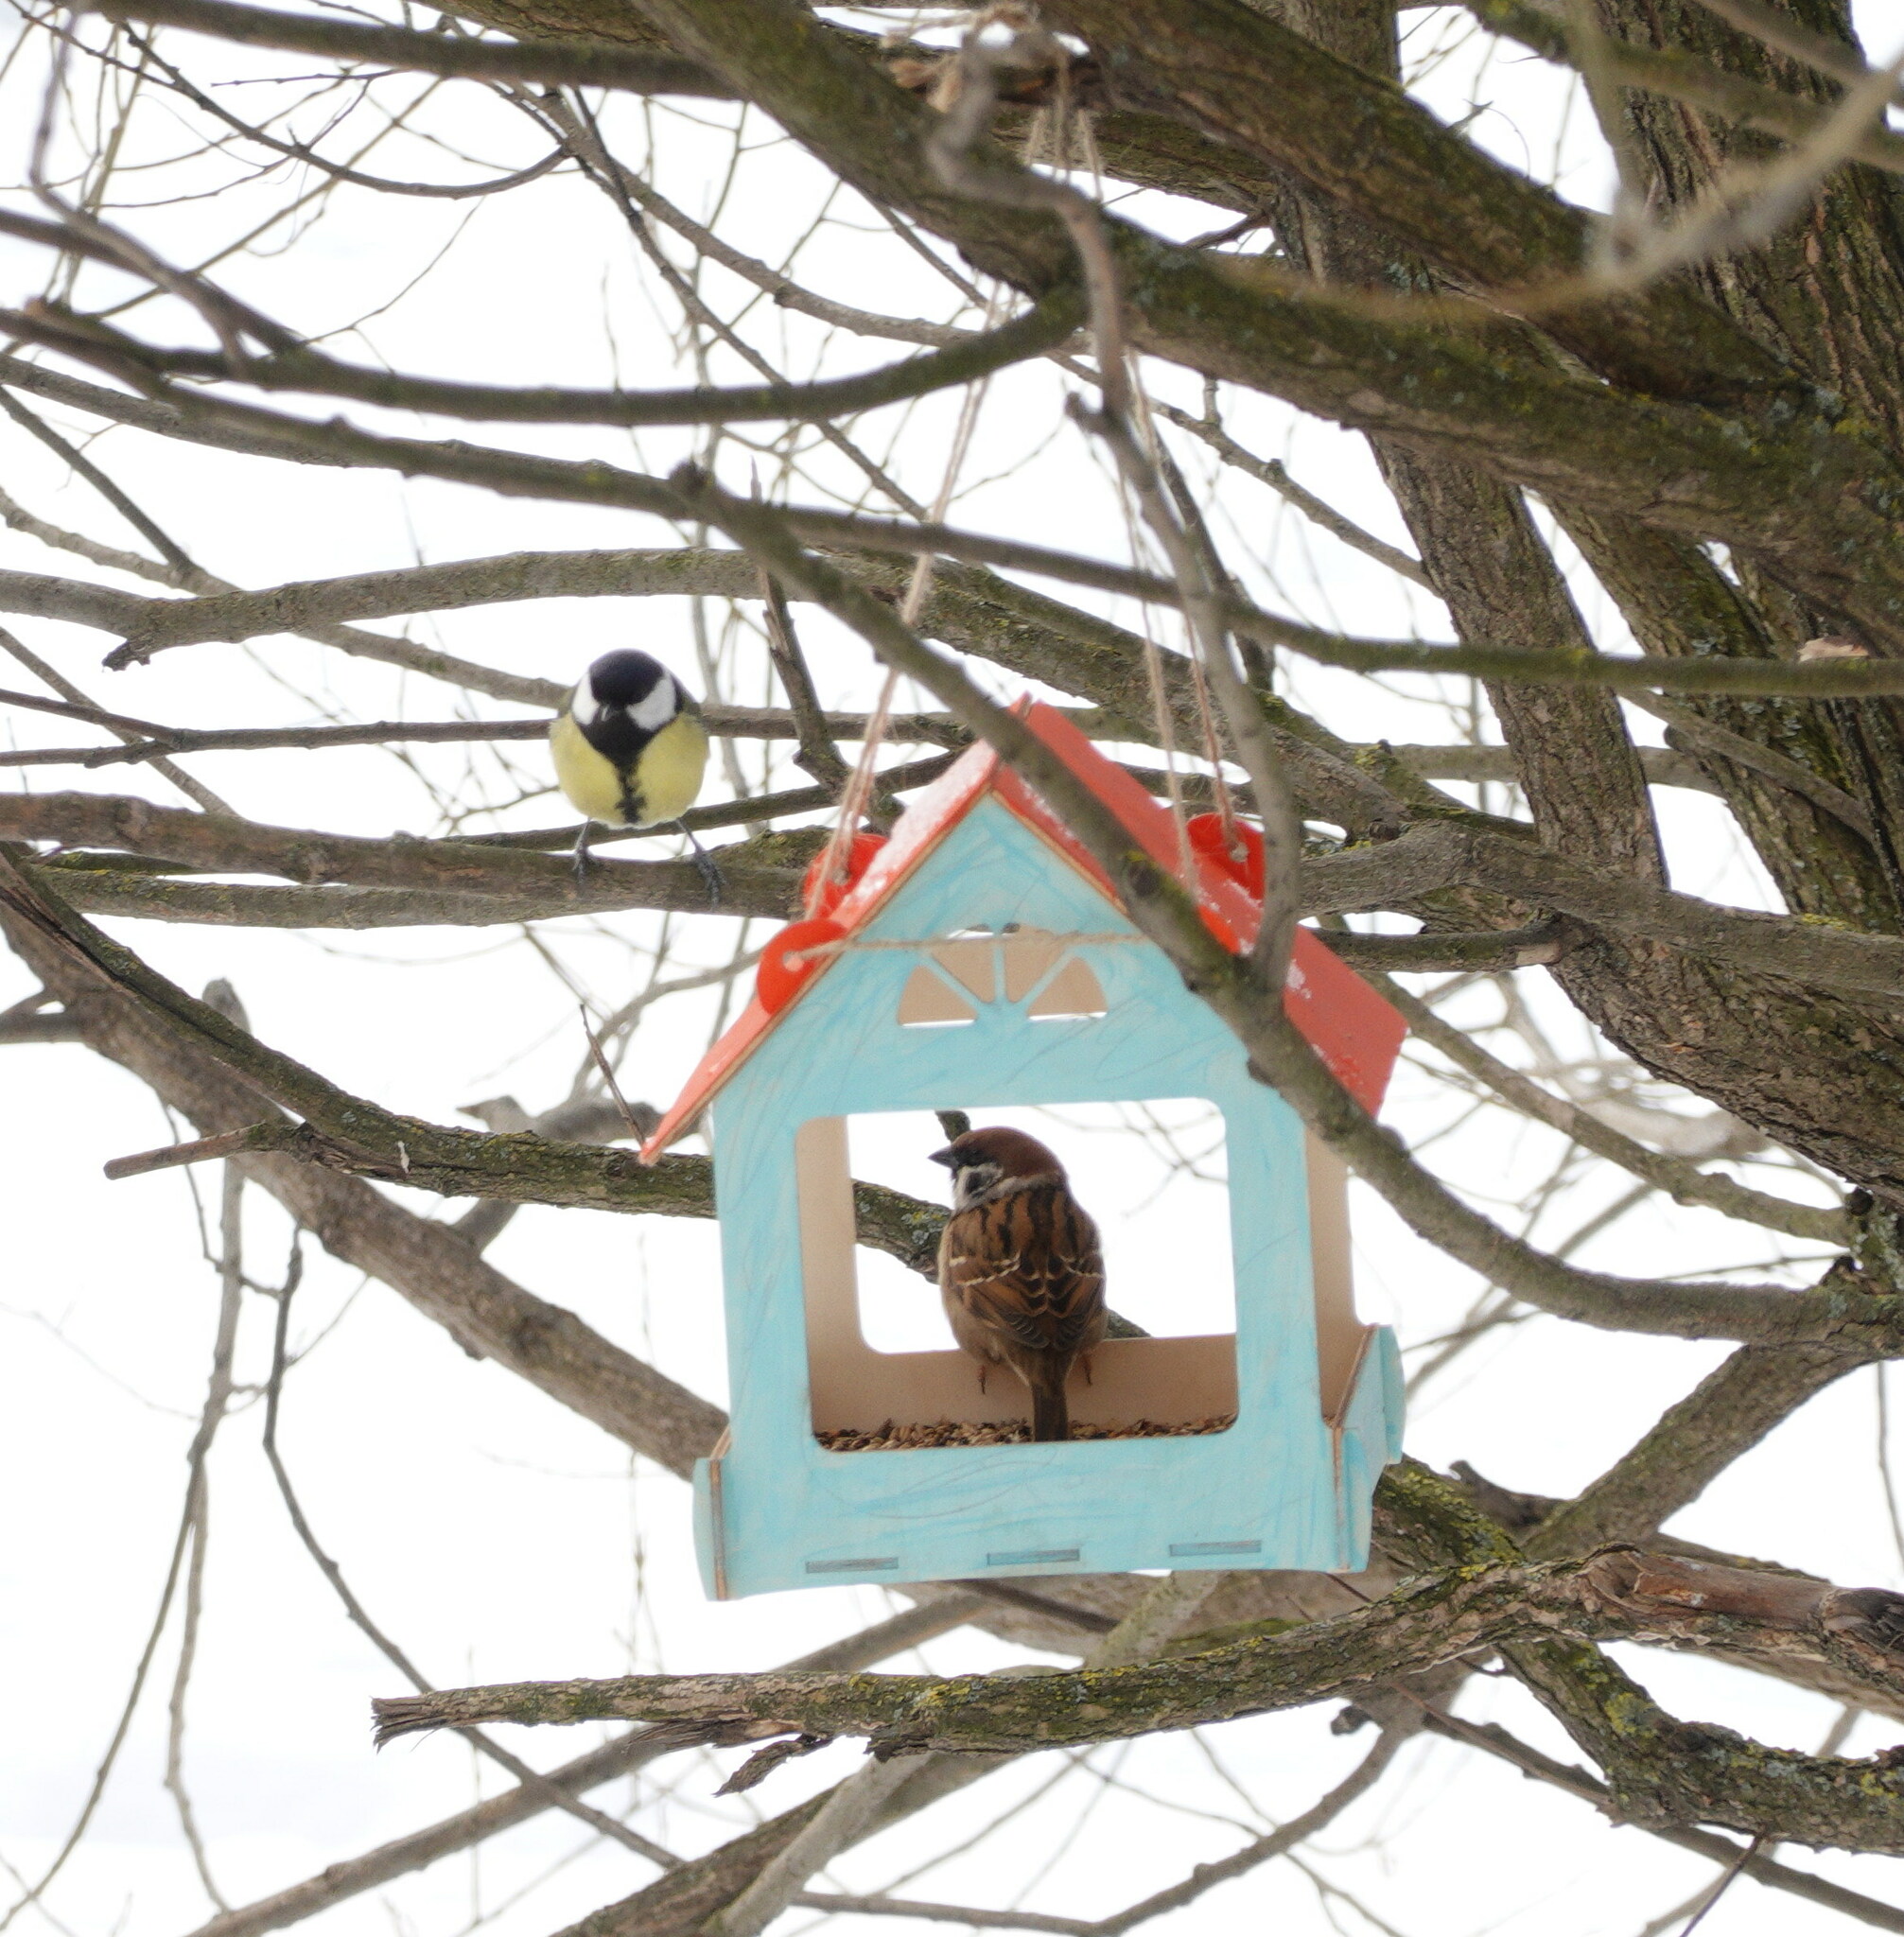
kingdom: Animalia
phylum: Chordata
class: Aves
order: Passeriformes
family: Passeridae
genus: Passer
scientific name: Passer montanus
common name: Eurasian tree sparrow
